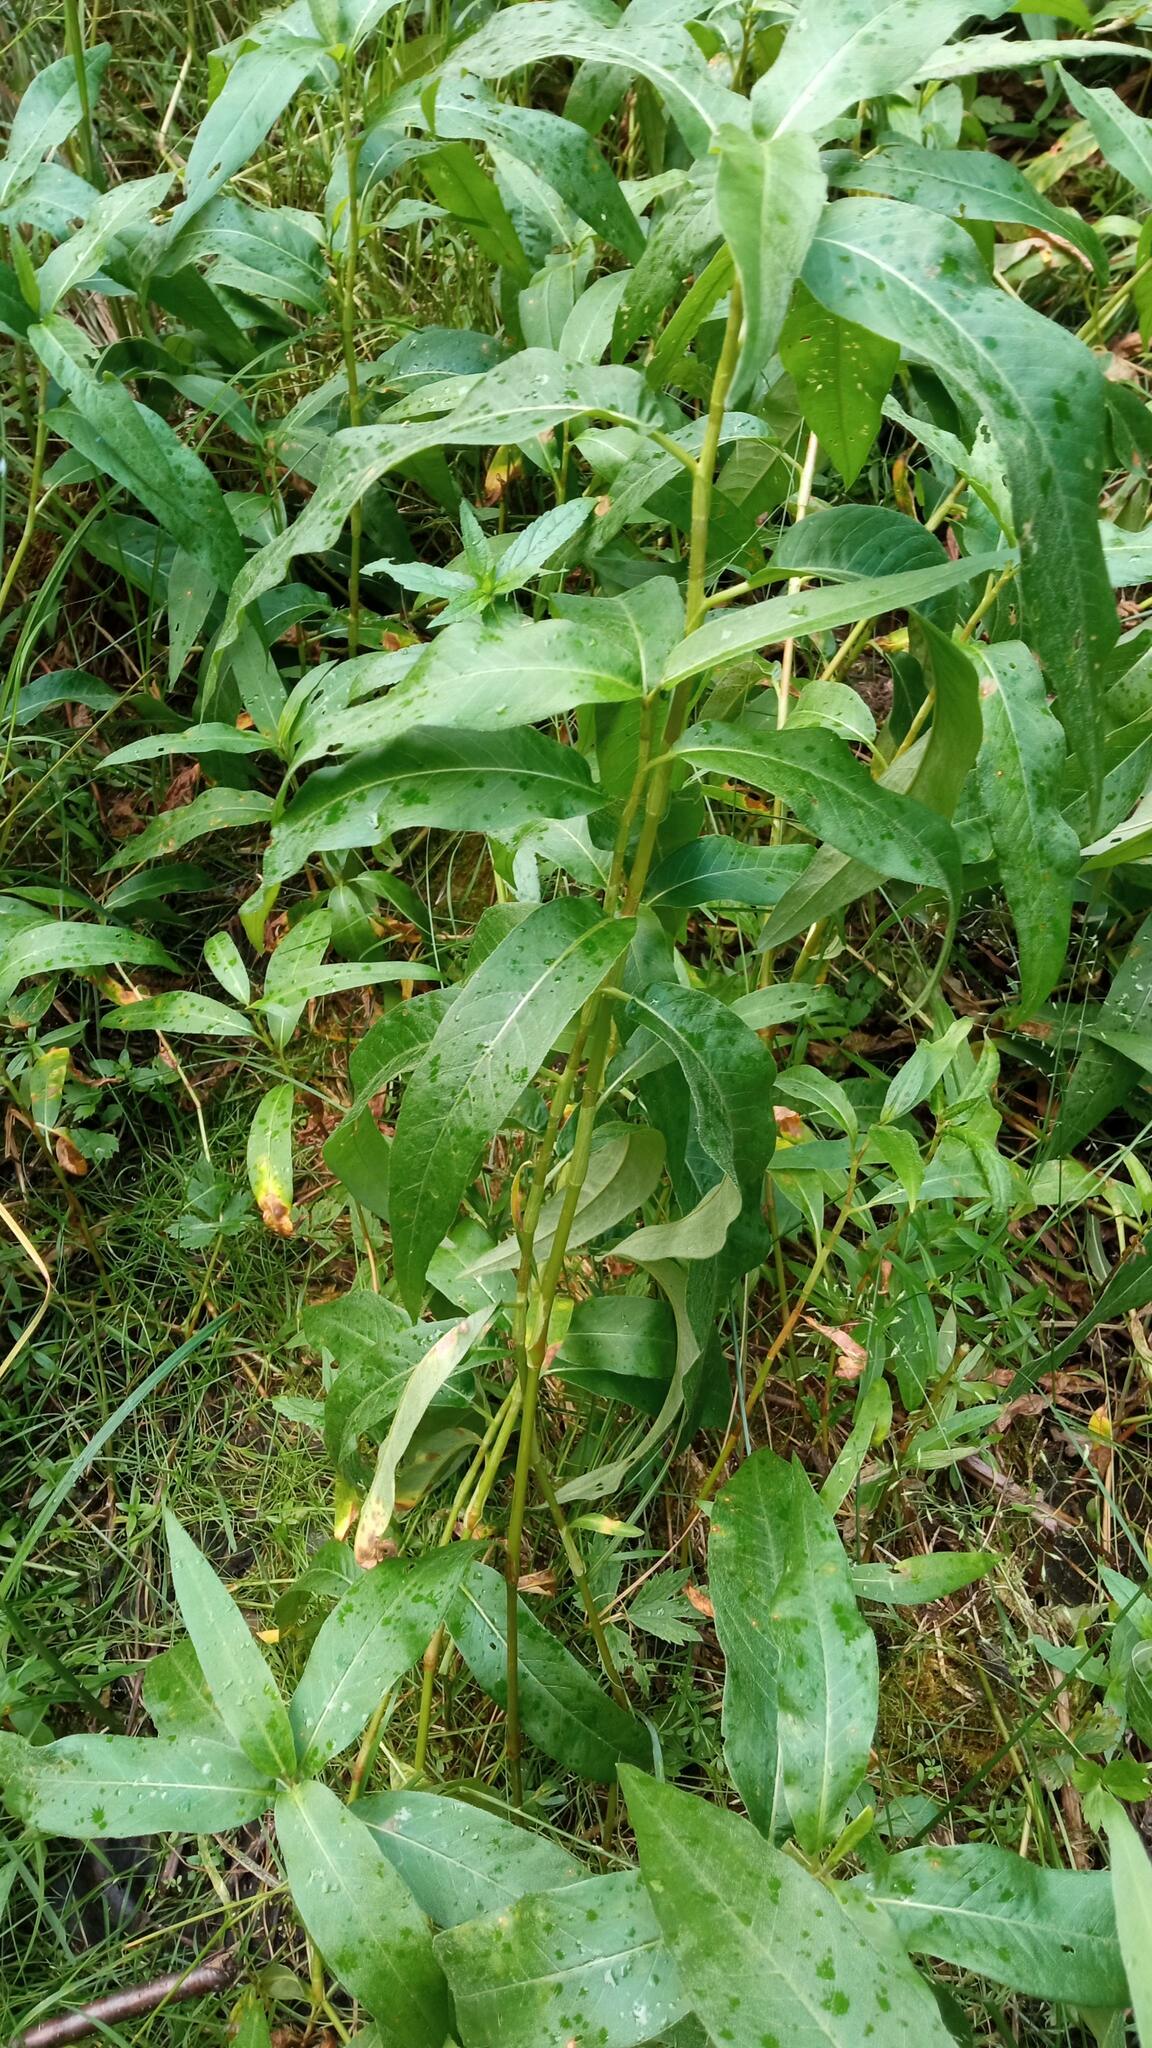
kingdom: Plantae
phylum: Tracheophyta
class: Magnoliopsida
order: Caryophyllales
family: Polygonaceae
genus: Persicaria
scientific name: Persicaria amphibia
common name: Amphibious bistort
